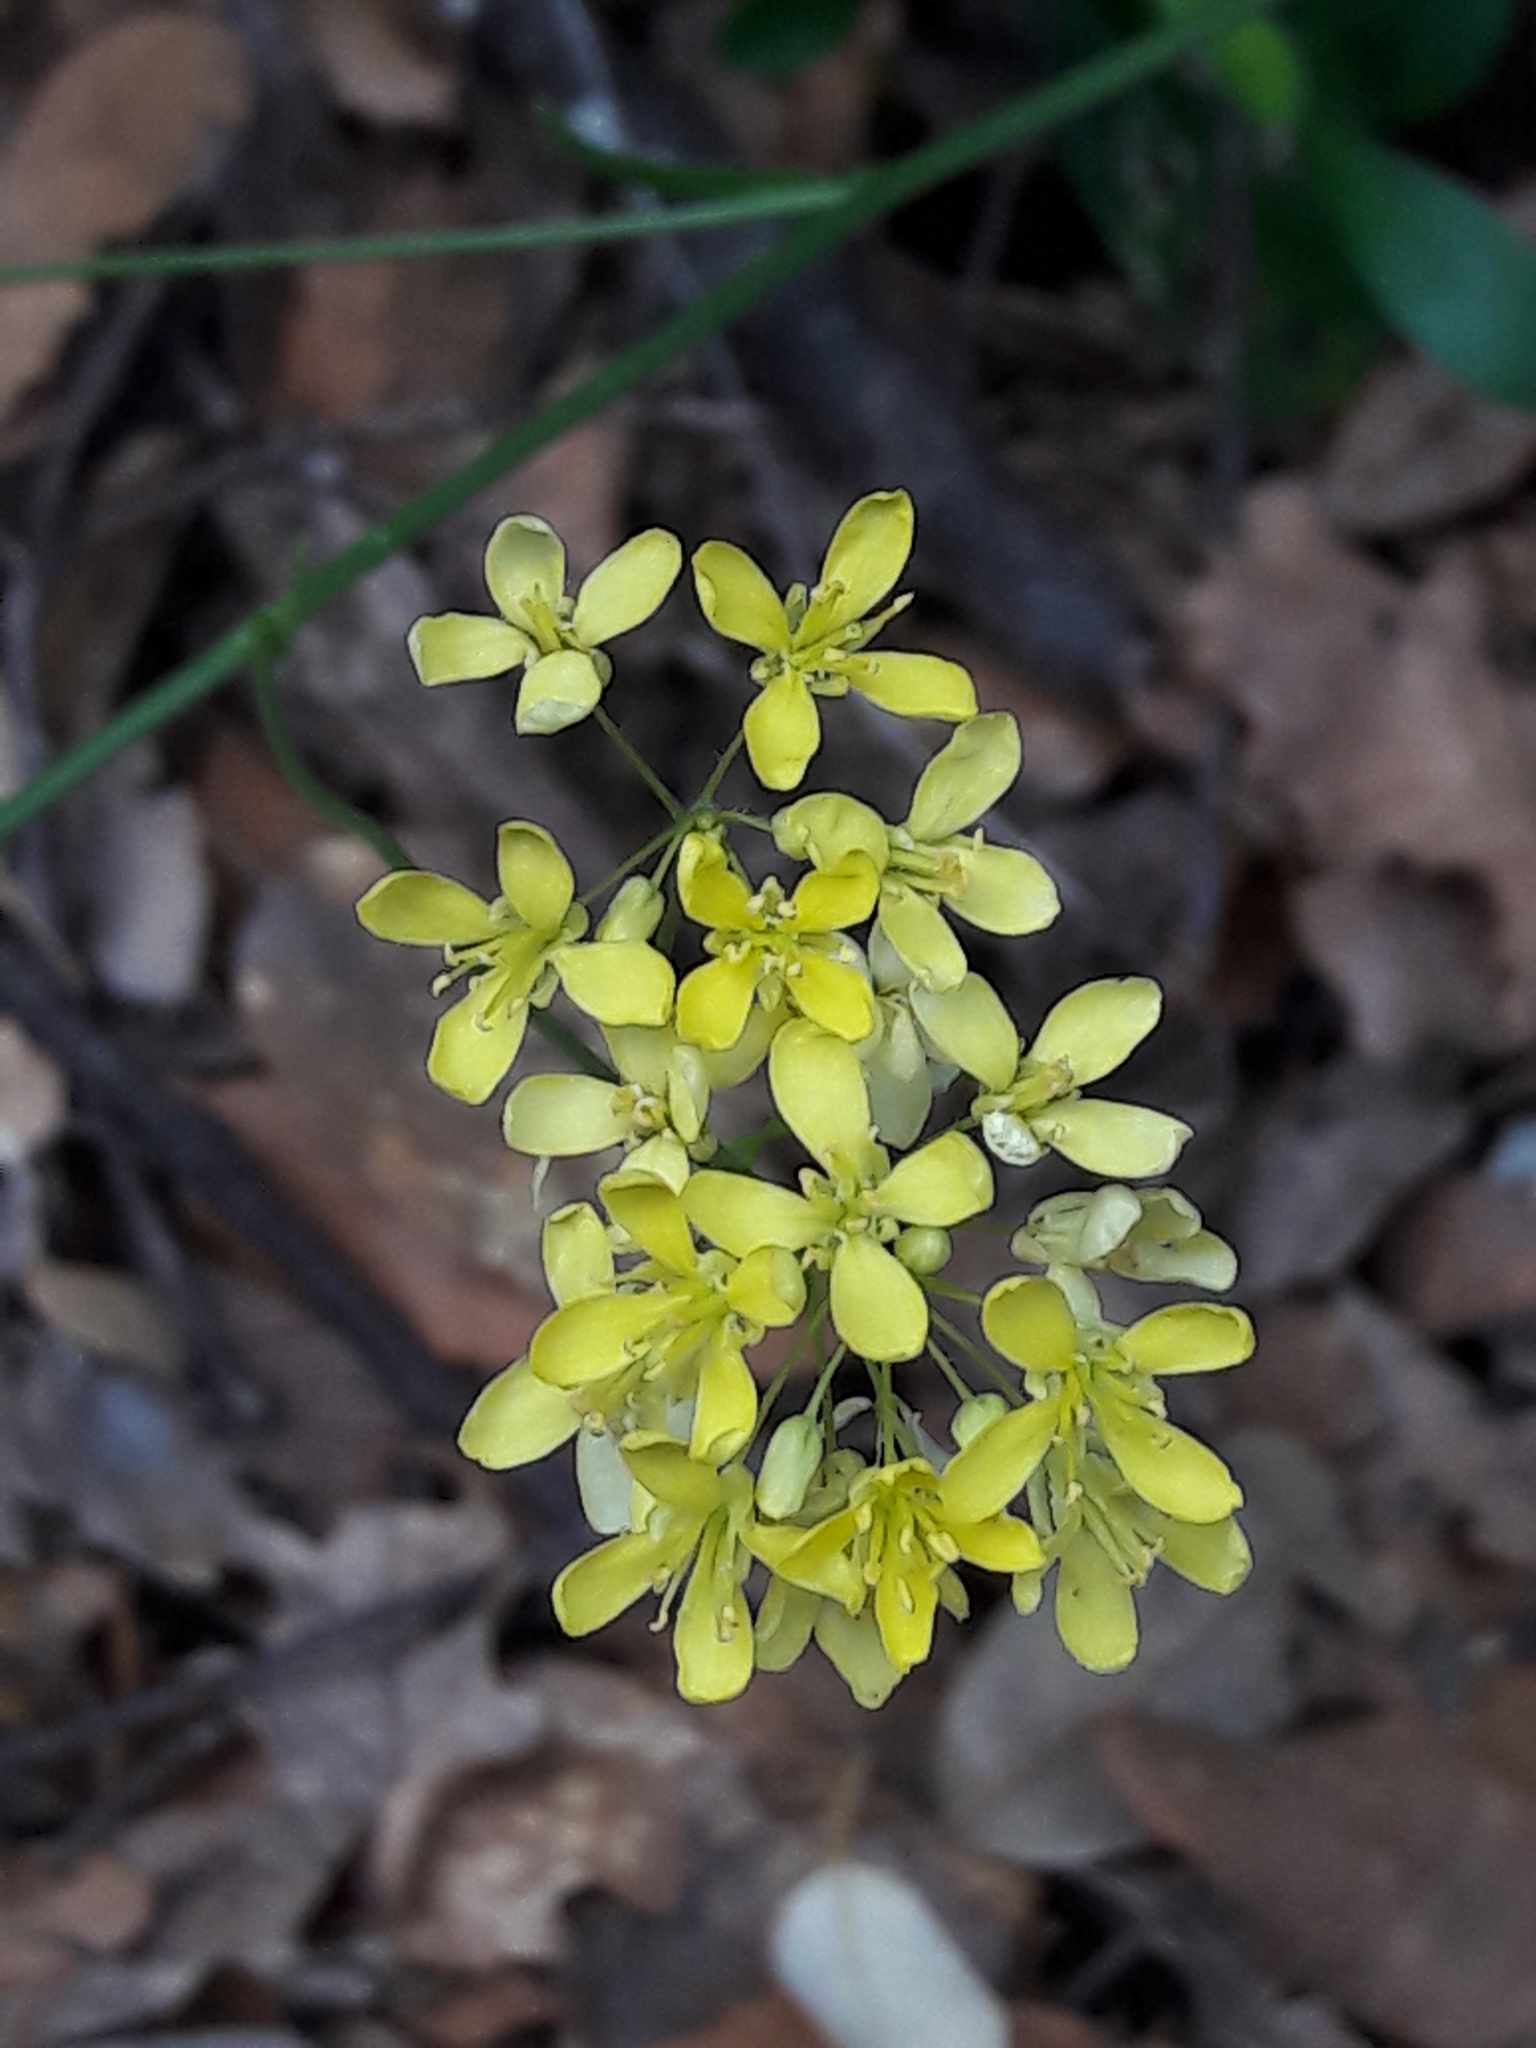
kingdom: Plantae
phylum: Tracheophyta
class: Magnoliopsida
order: Brassicales
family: Brassicaceae
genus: Biscutella
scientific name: Biscutella laevigata
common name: Buckler mustard
